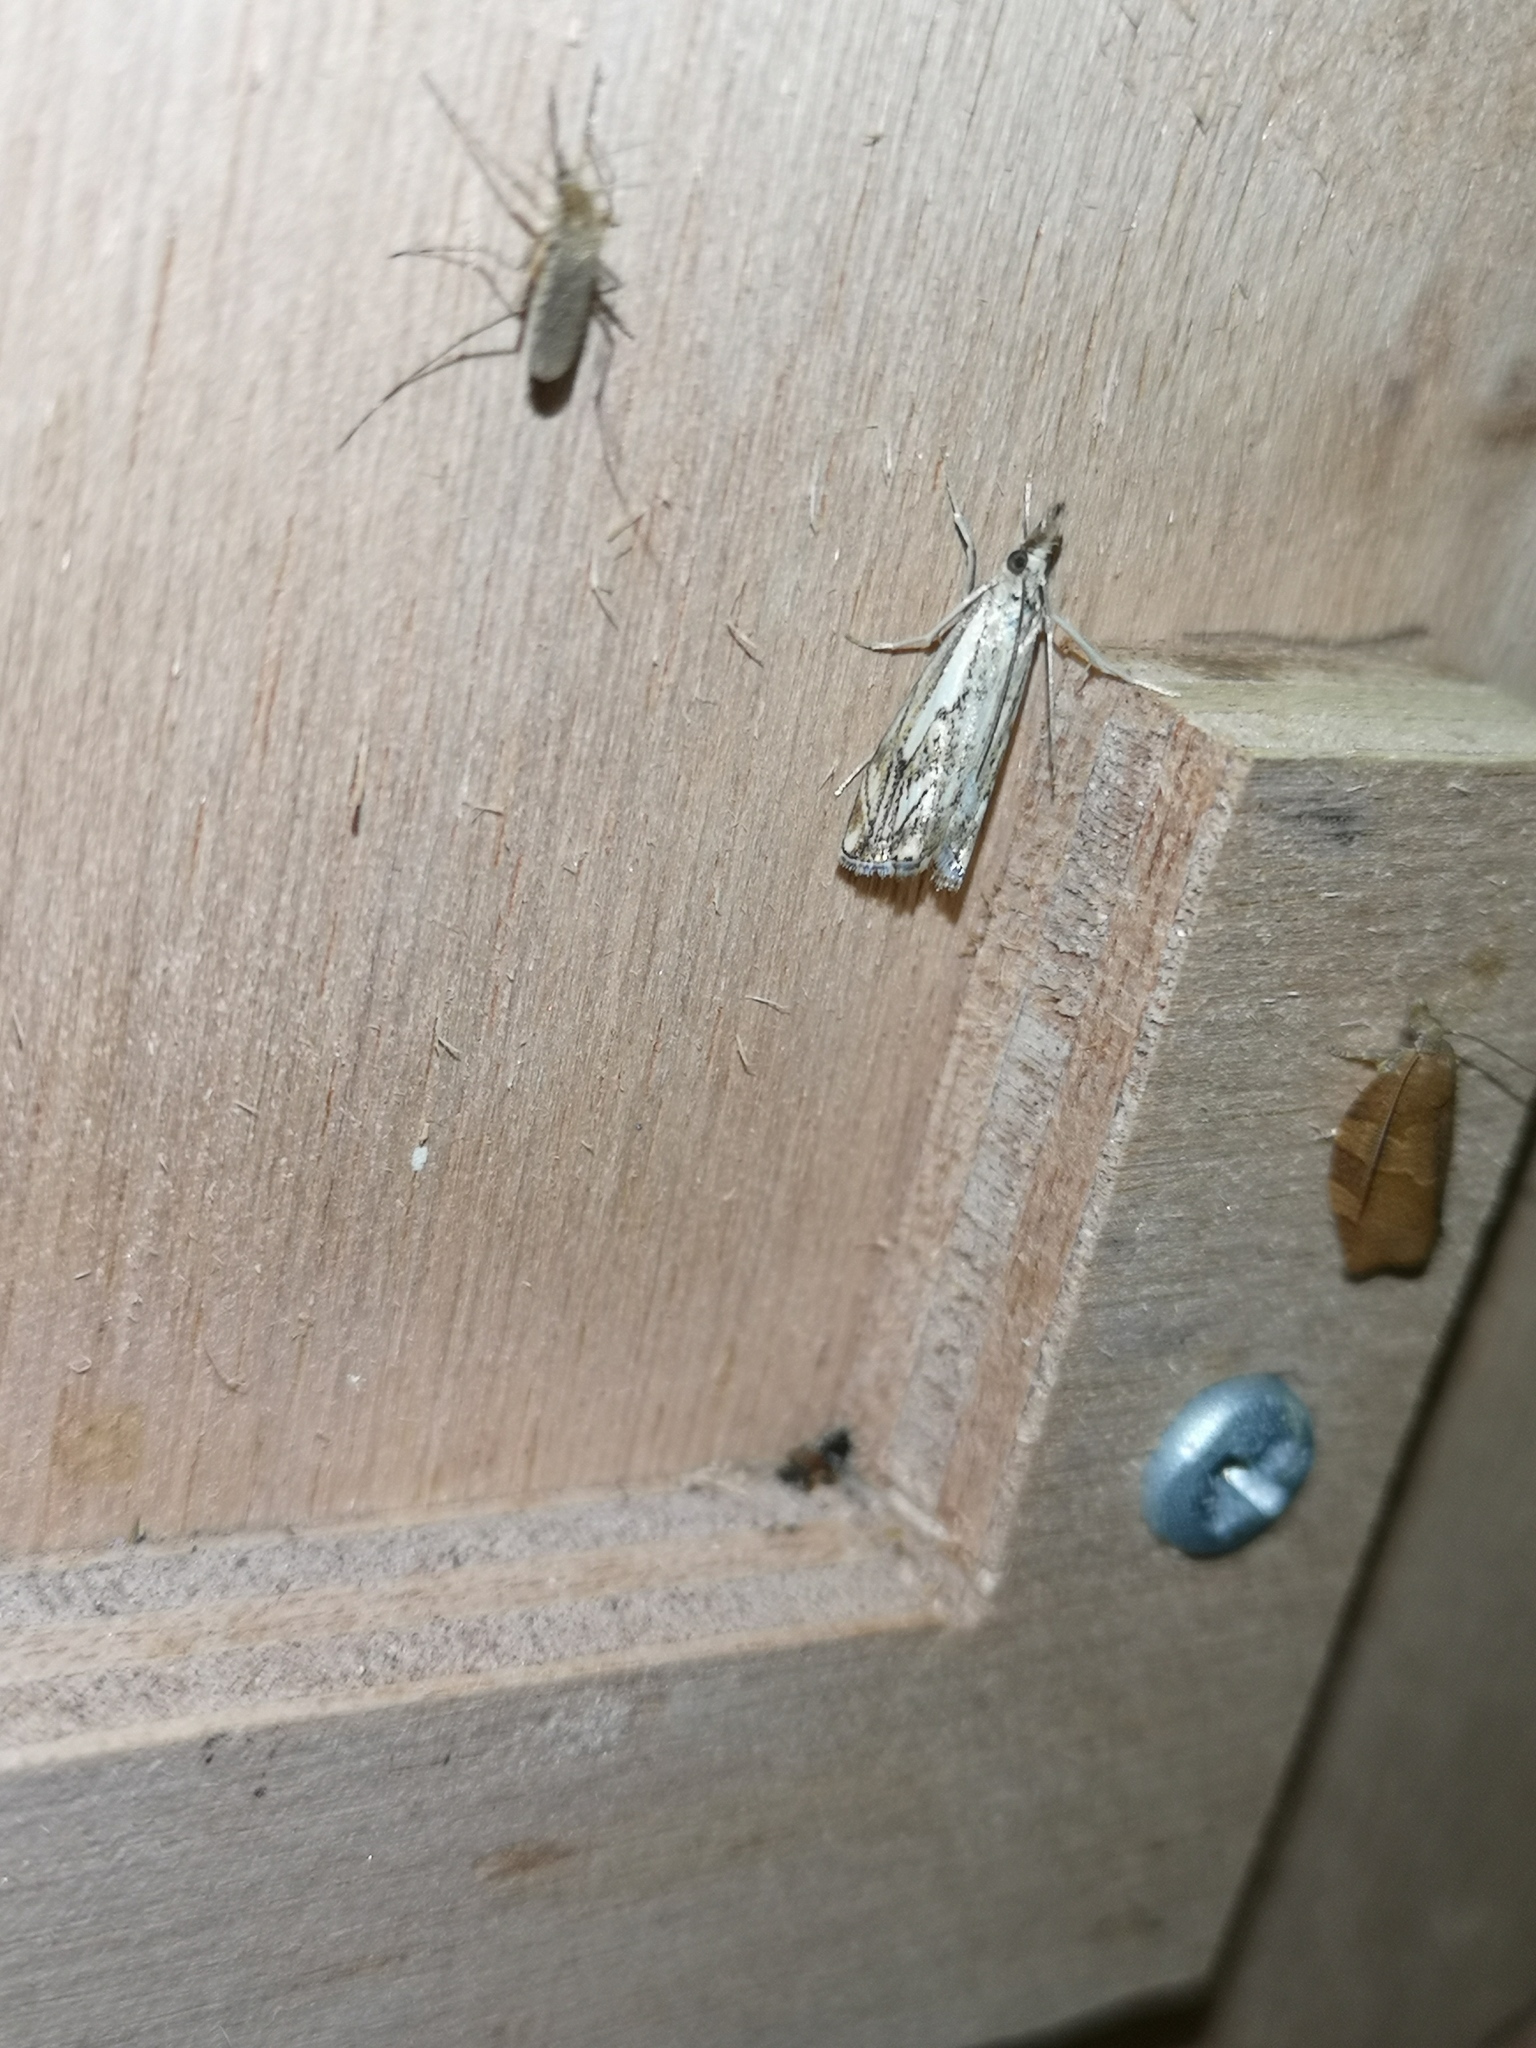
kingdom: Animalia
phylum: Arthropoda
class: Insecta
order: Lepidoptera
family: Crambidae
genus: Catoptria
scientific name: Catoptria falsella
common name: Chequered grass-veneer
